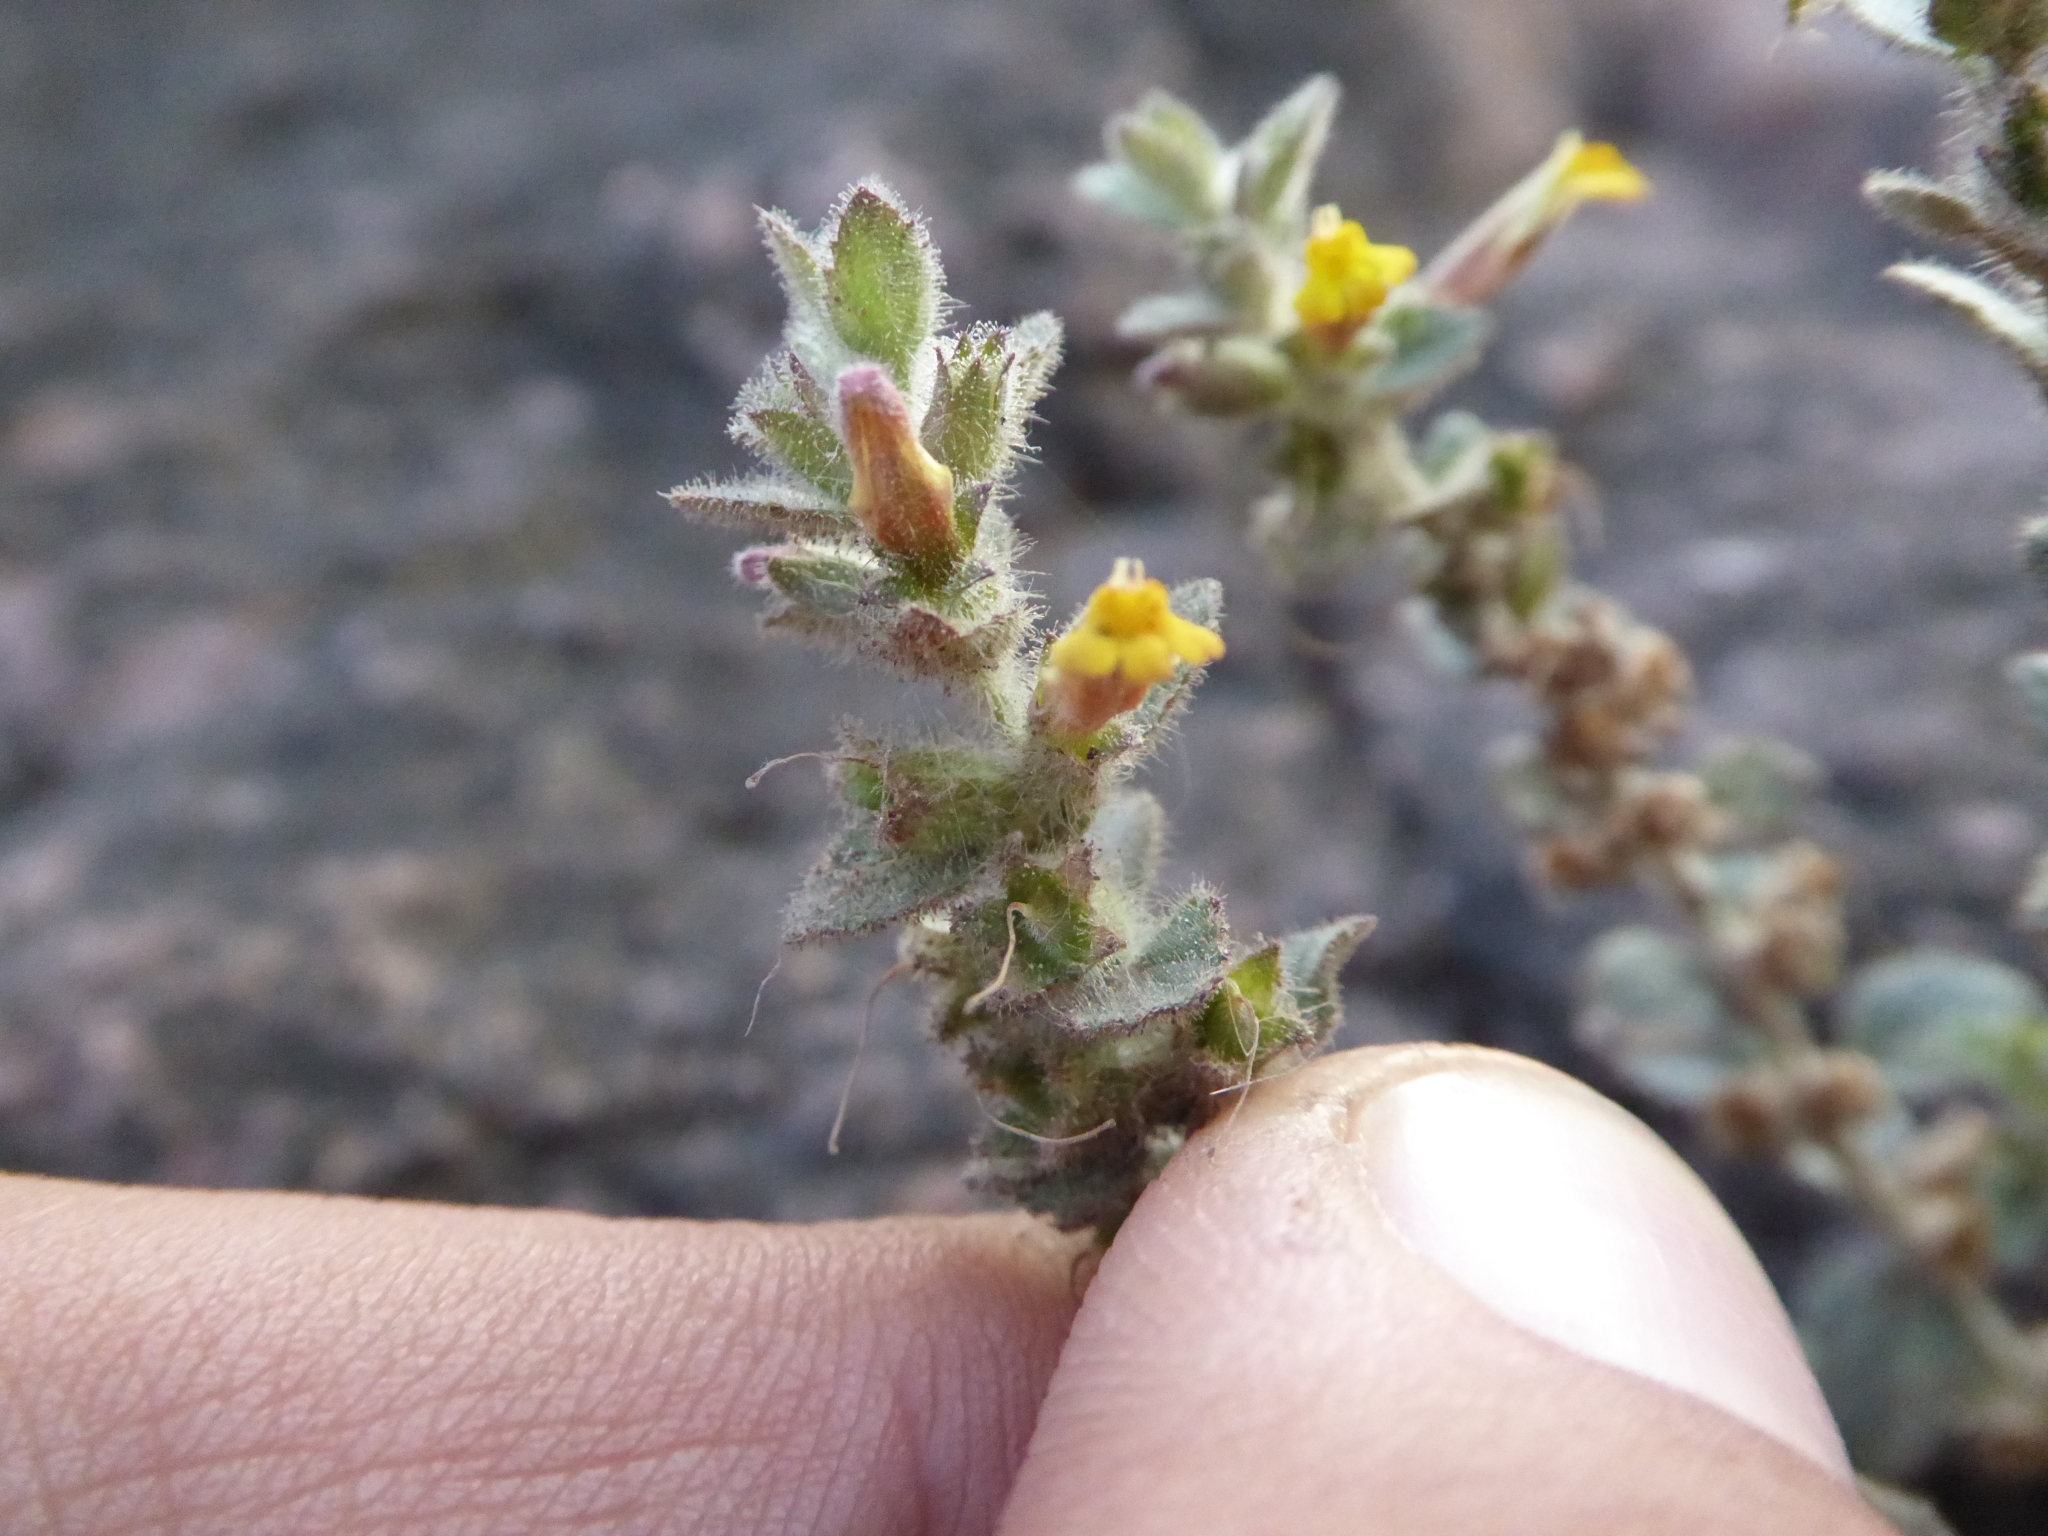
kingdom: Plantae
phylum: Tracheophyta
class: Magnoliopsida
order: Lamiales
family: Orobanchaceae
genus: Lindenbergia
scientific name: Lindenbergia indica
